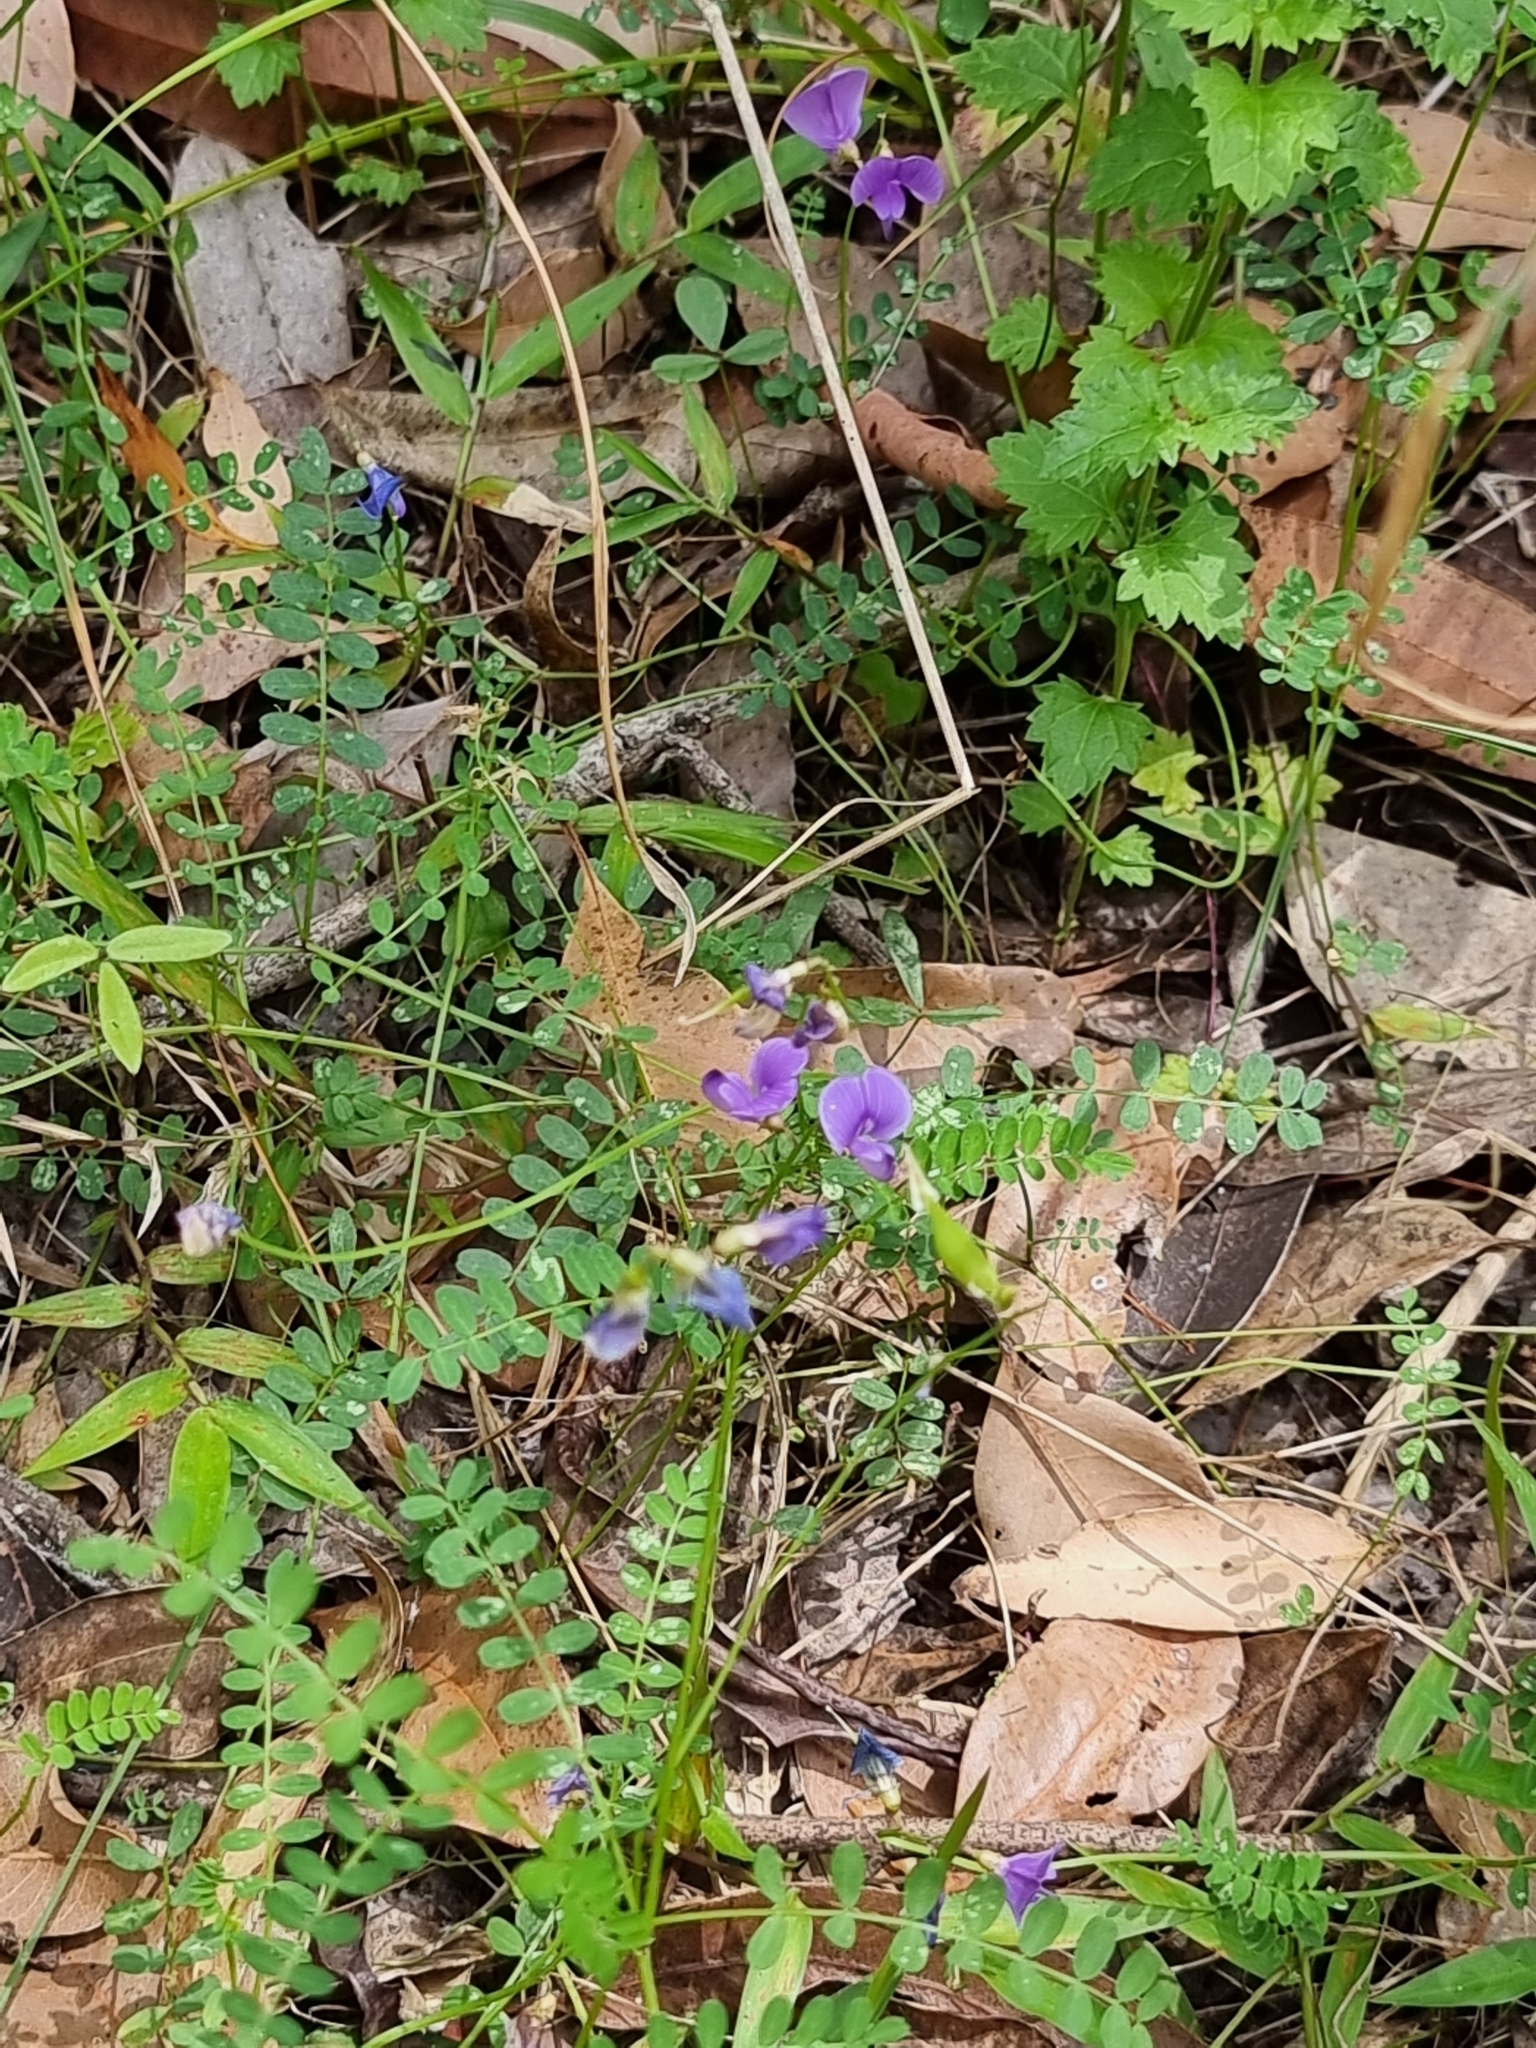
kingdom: Plantae
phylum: Tracheophyta
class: Magnoliopsida
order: Fabales
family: Fabaceae
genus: Swainsona
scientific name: Swainsona brachycarpa
